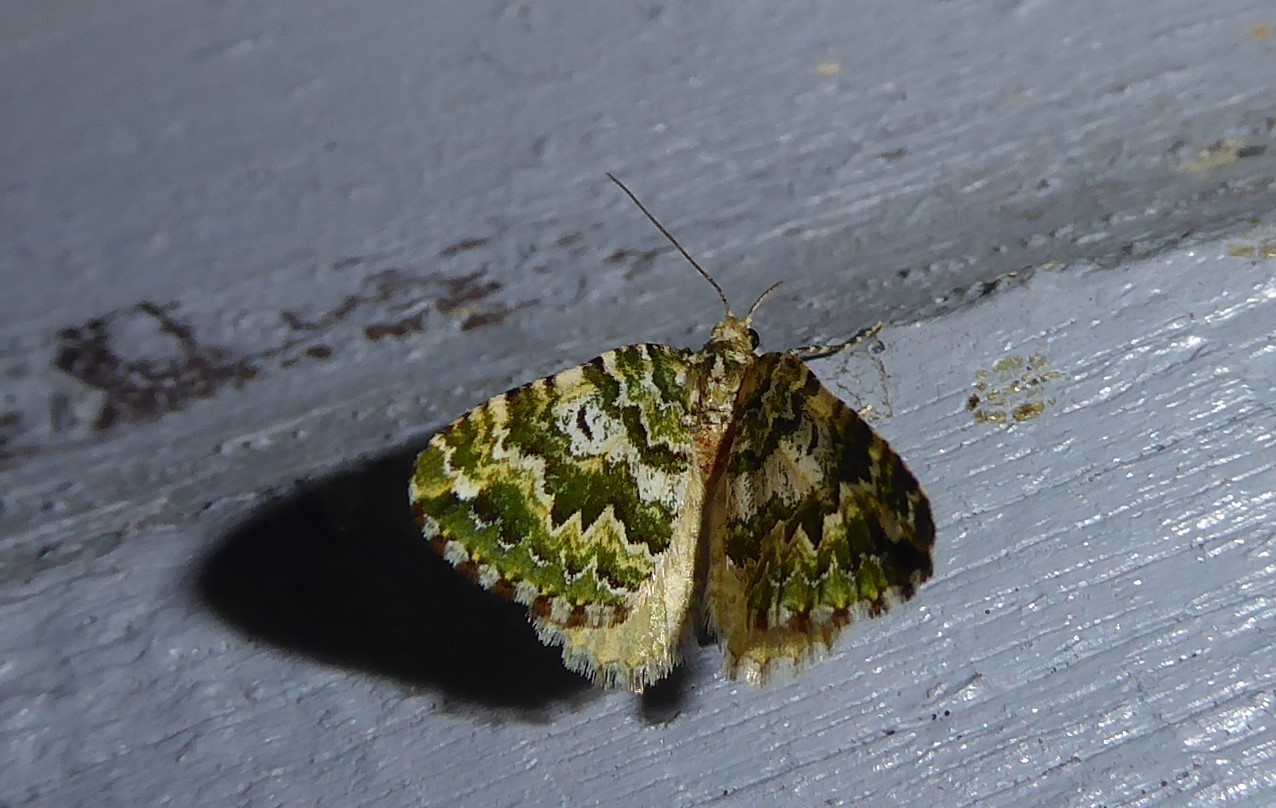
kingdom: Animalia
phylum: Arthropoda
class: Insecta
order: Lepidoptera
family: Geometridae
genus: Asaphodes
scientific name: Asaphodes beata
